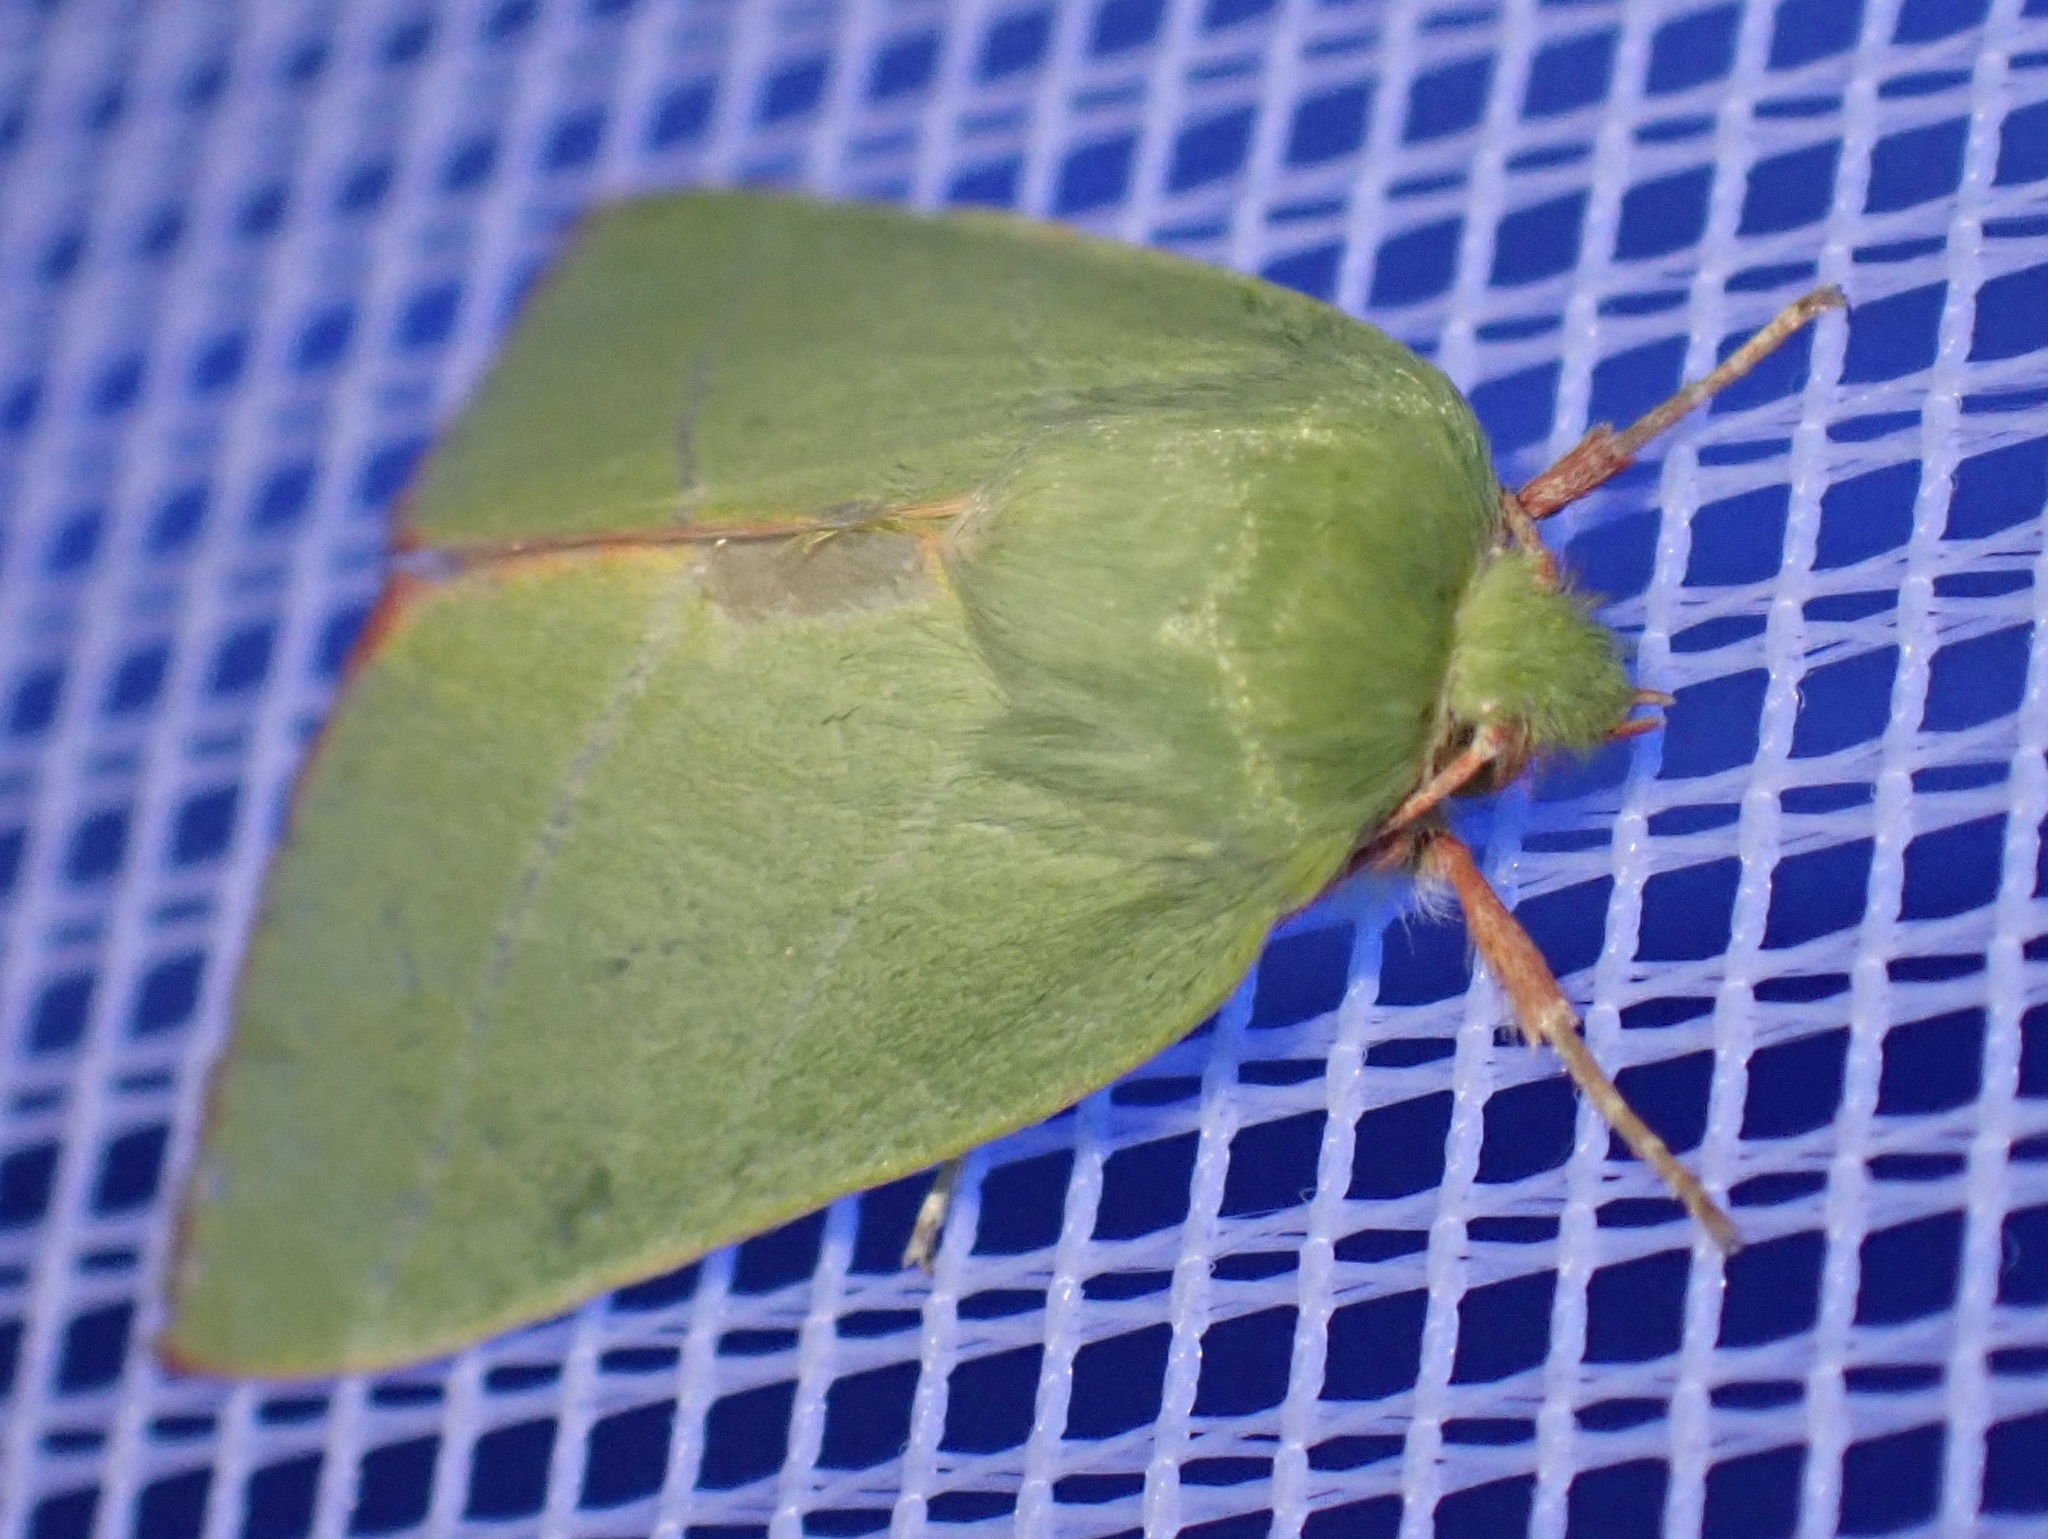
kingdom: Animalia
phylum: Arthropoda
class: Insecta
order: Lepidoptera
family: Nolidae
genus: Pseudoips
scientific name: Pseudoips prasinana
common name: Green silver-lines
